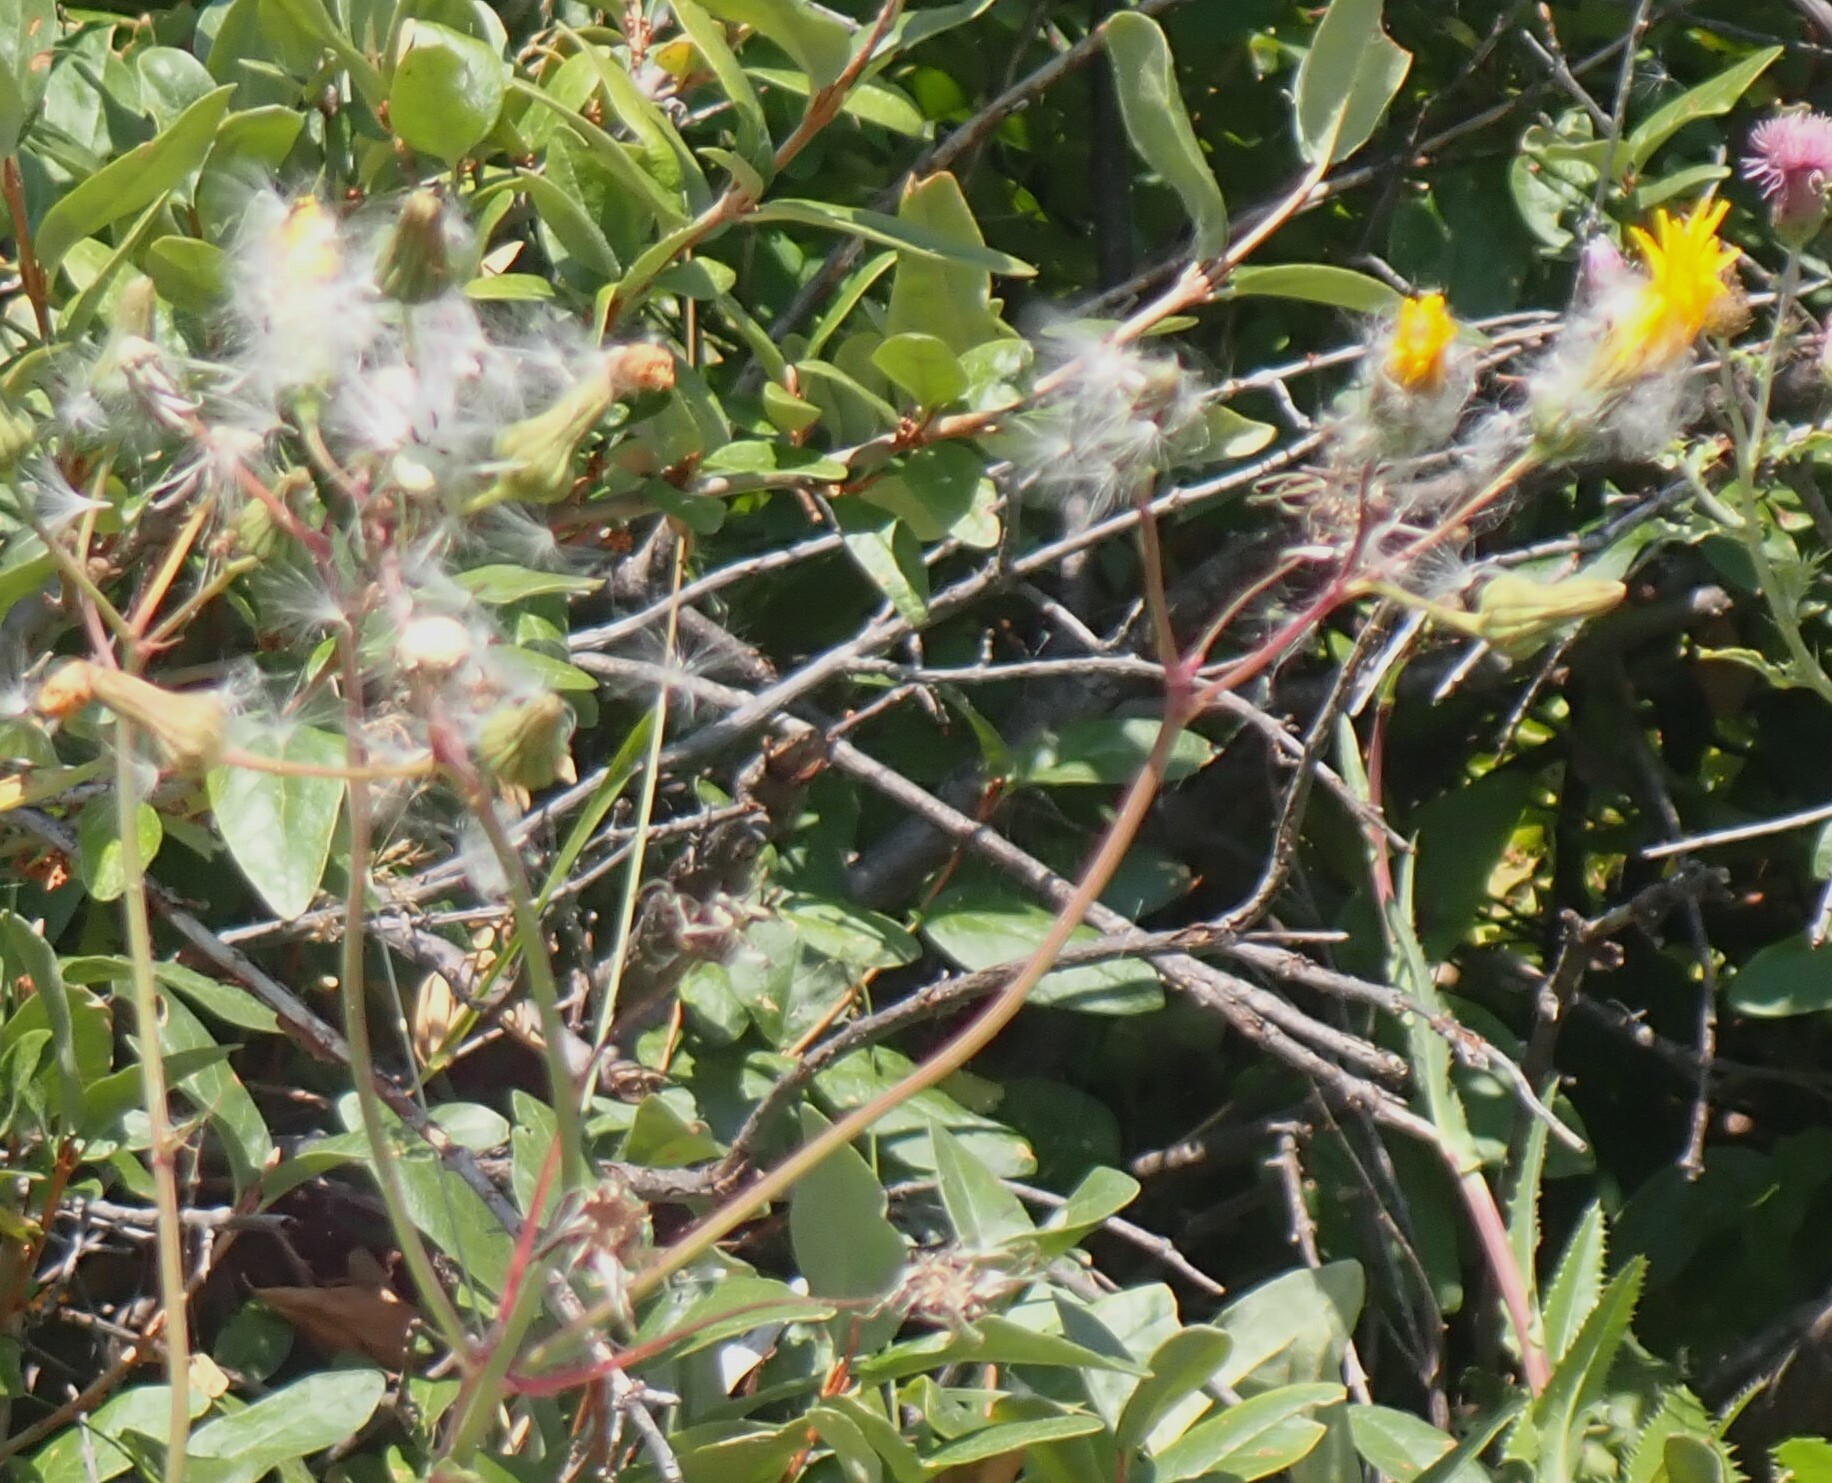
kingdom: Plantae
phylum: Tracheophyta
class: Magnoliopsida
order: Asterales
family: Asteraceae
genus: Sonchus
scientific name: Sonchus asper
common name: Prickly sow-thistle
